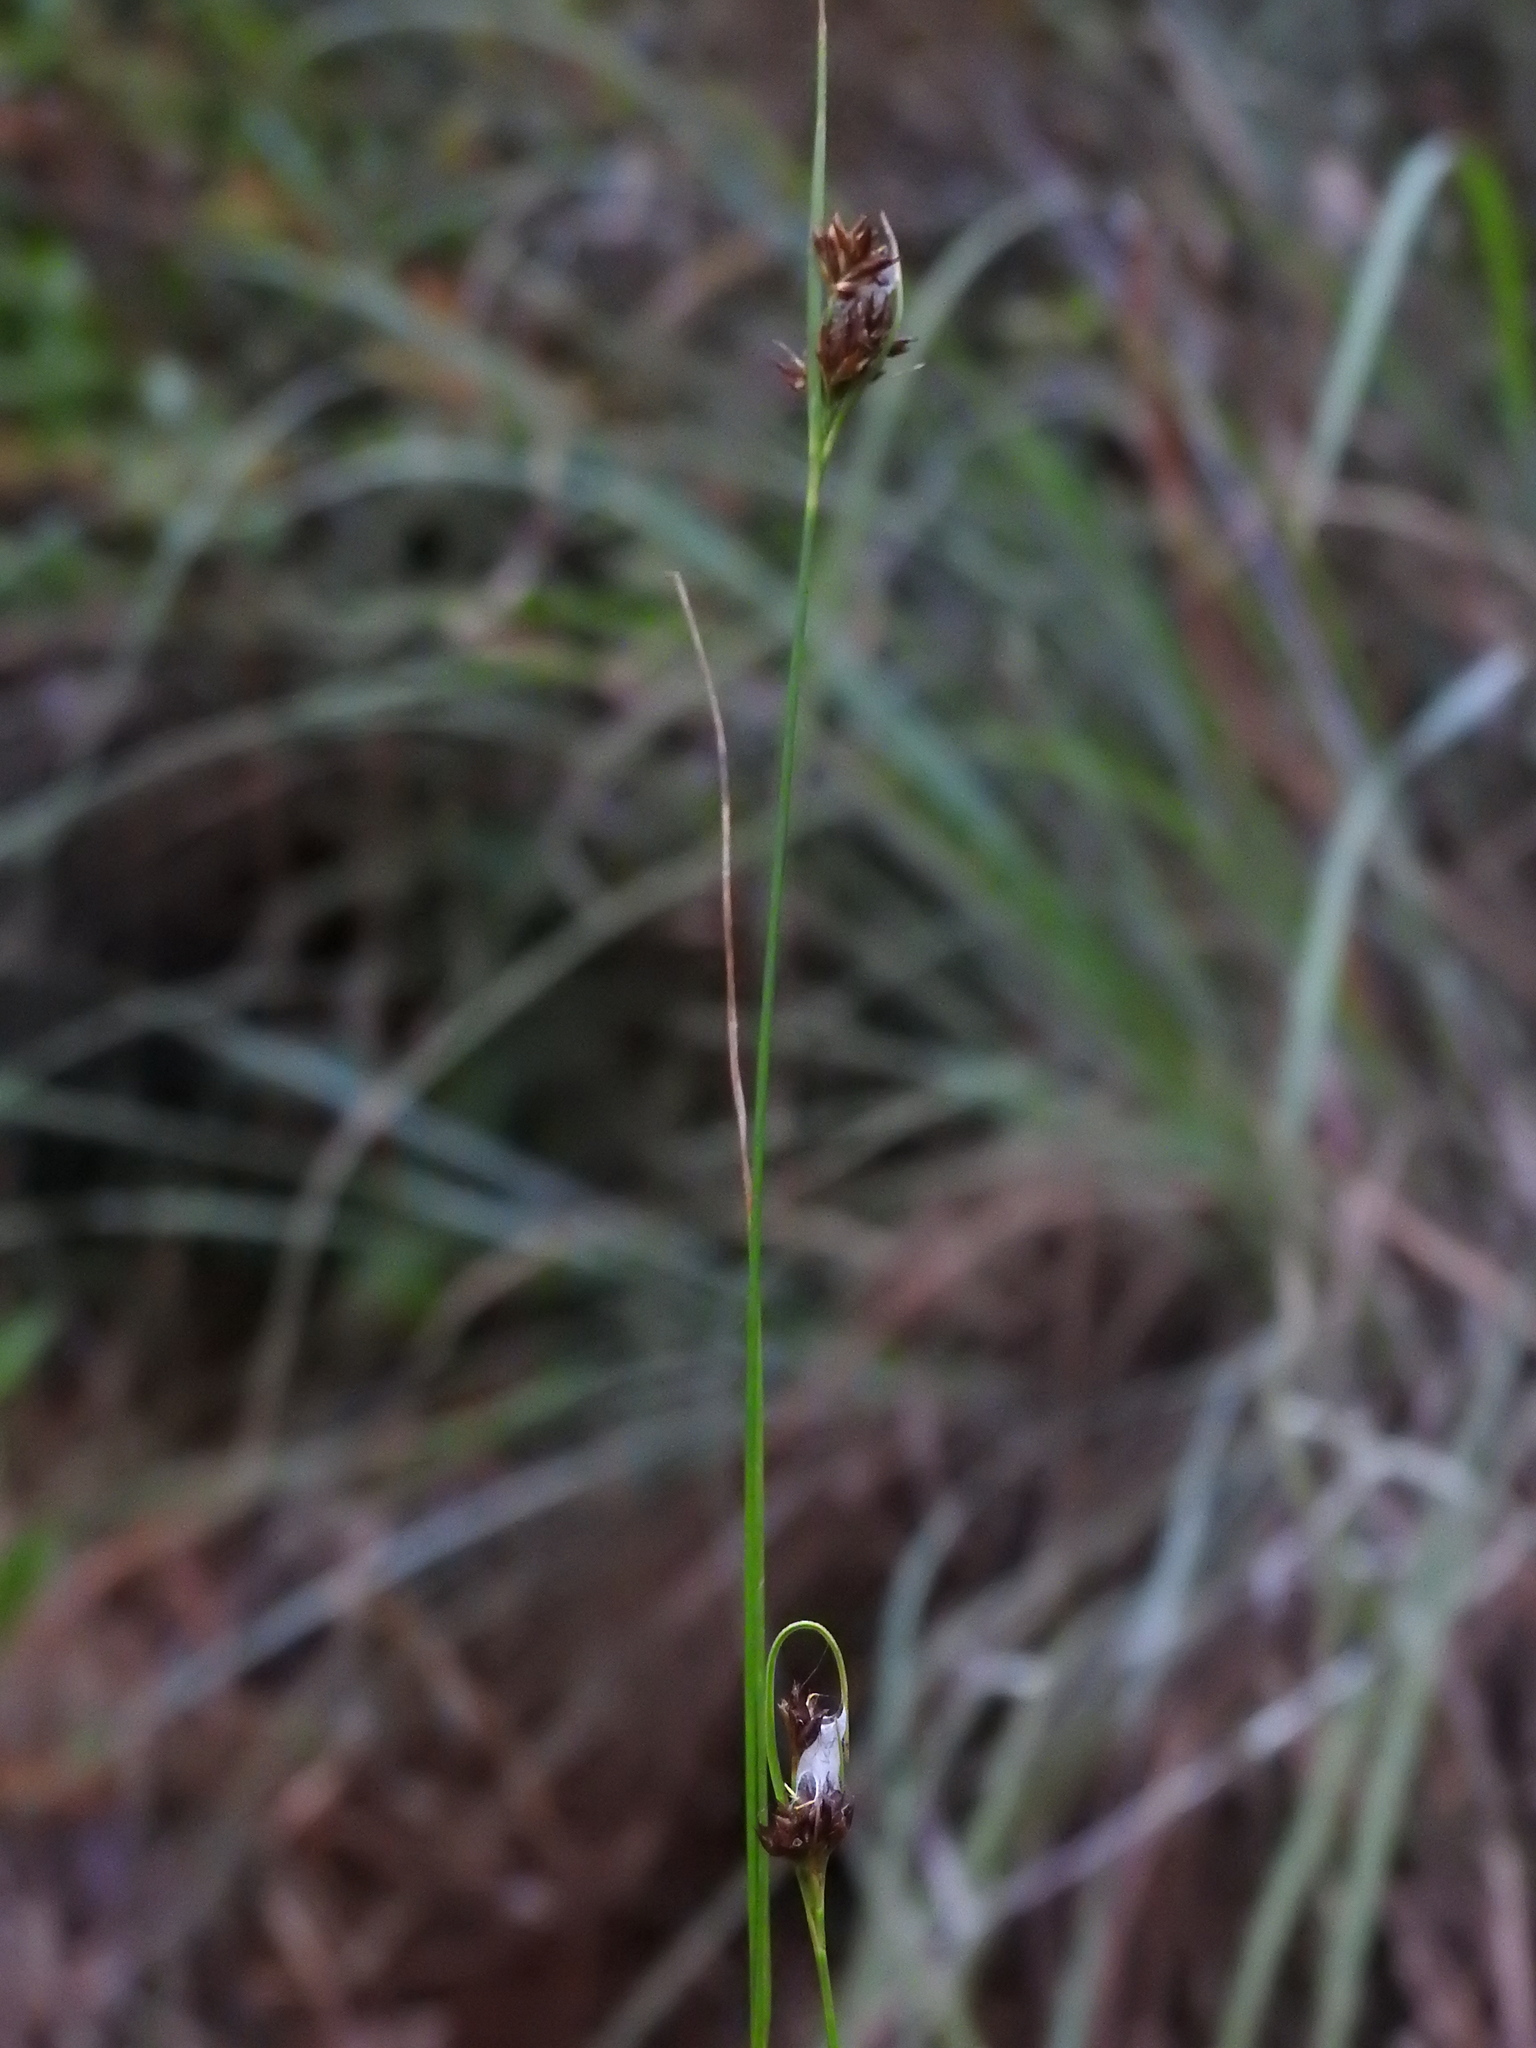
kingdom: Plantae
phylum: Tracheophyta
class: Liliopsida
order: Poales
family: Cyperaceae
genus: Rhynchospora
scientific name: Rhynchospora fascicularis
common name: Fascicled beak sedge
